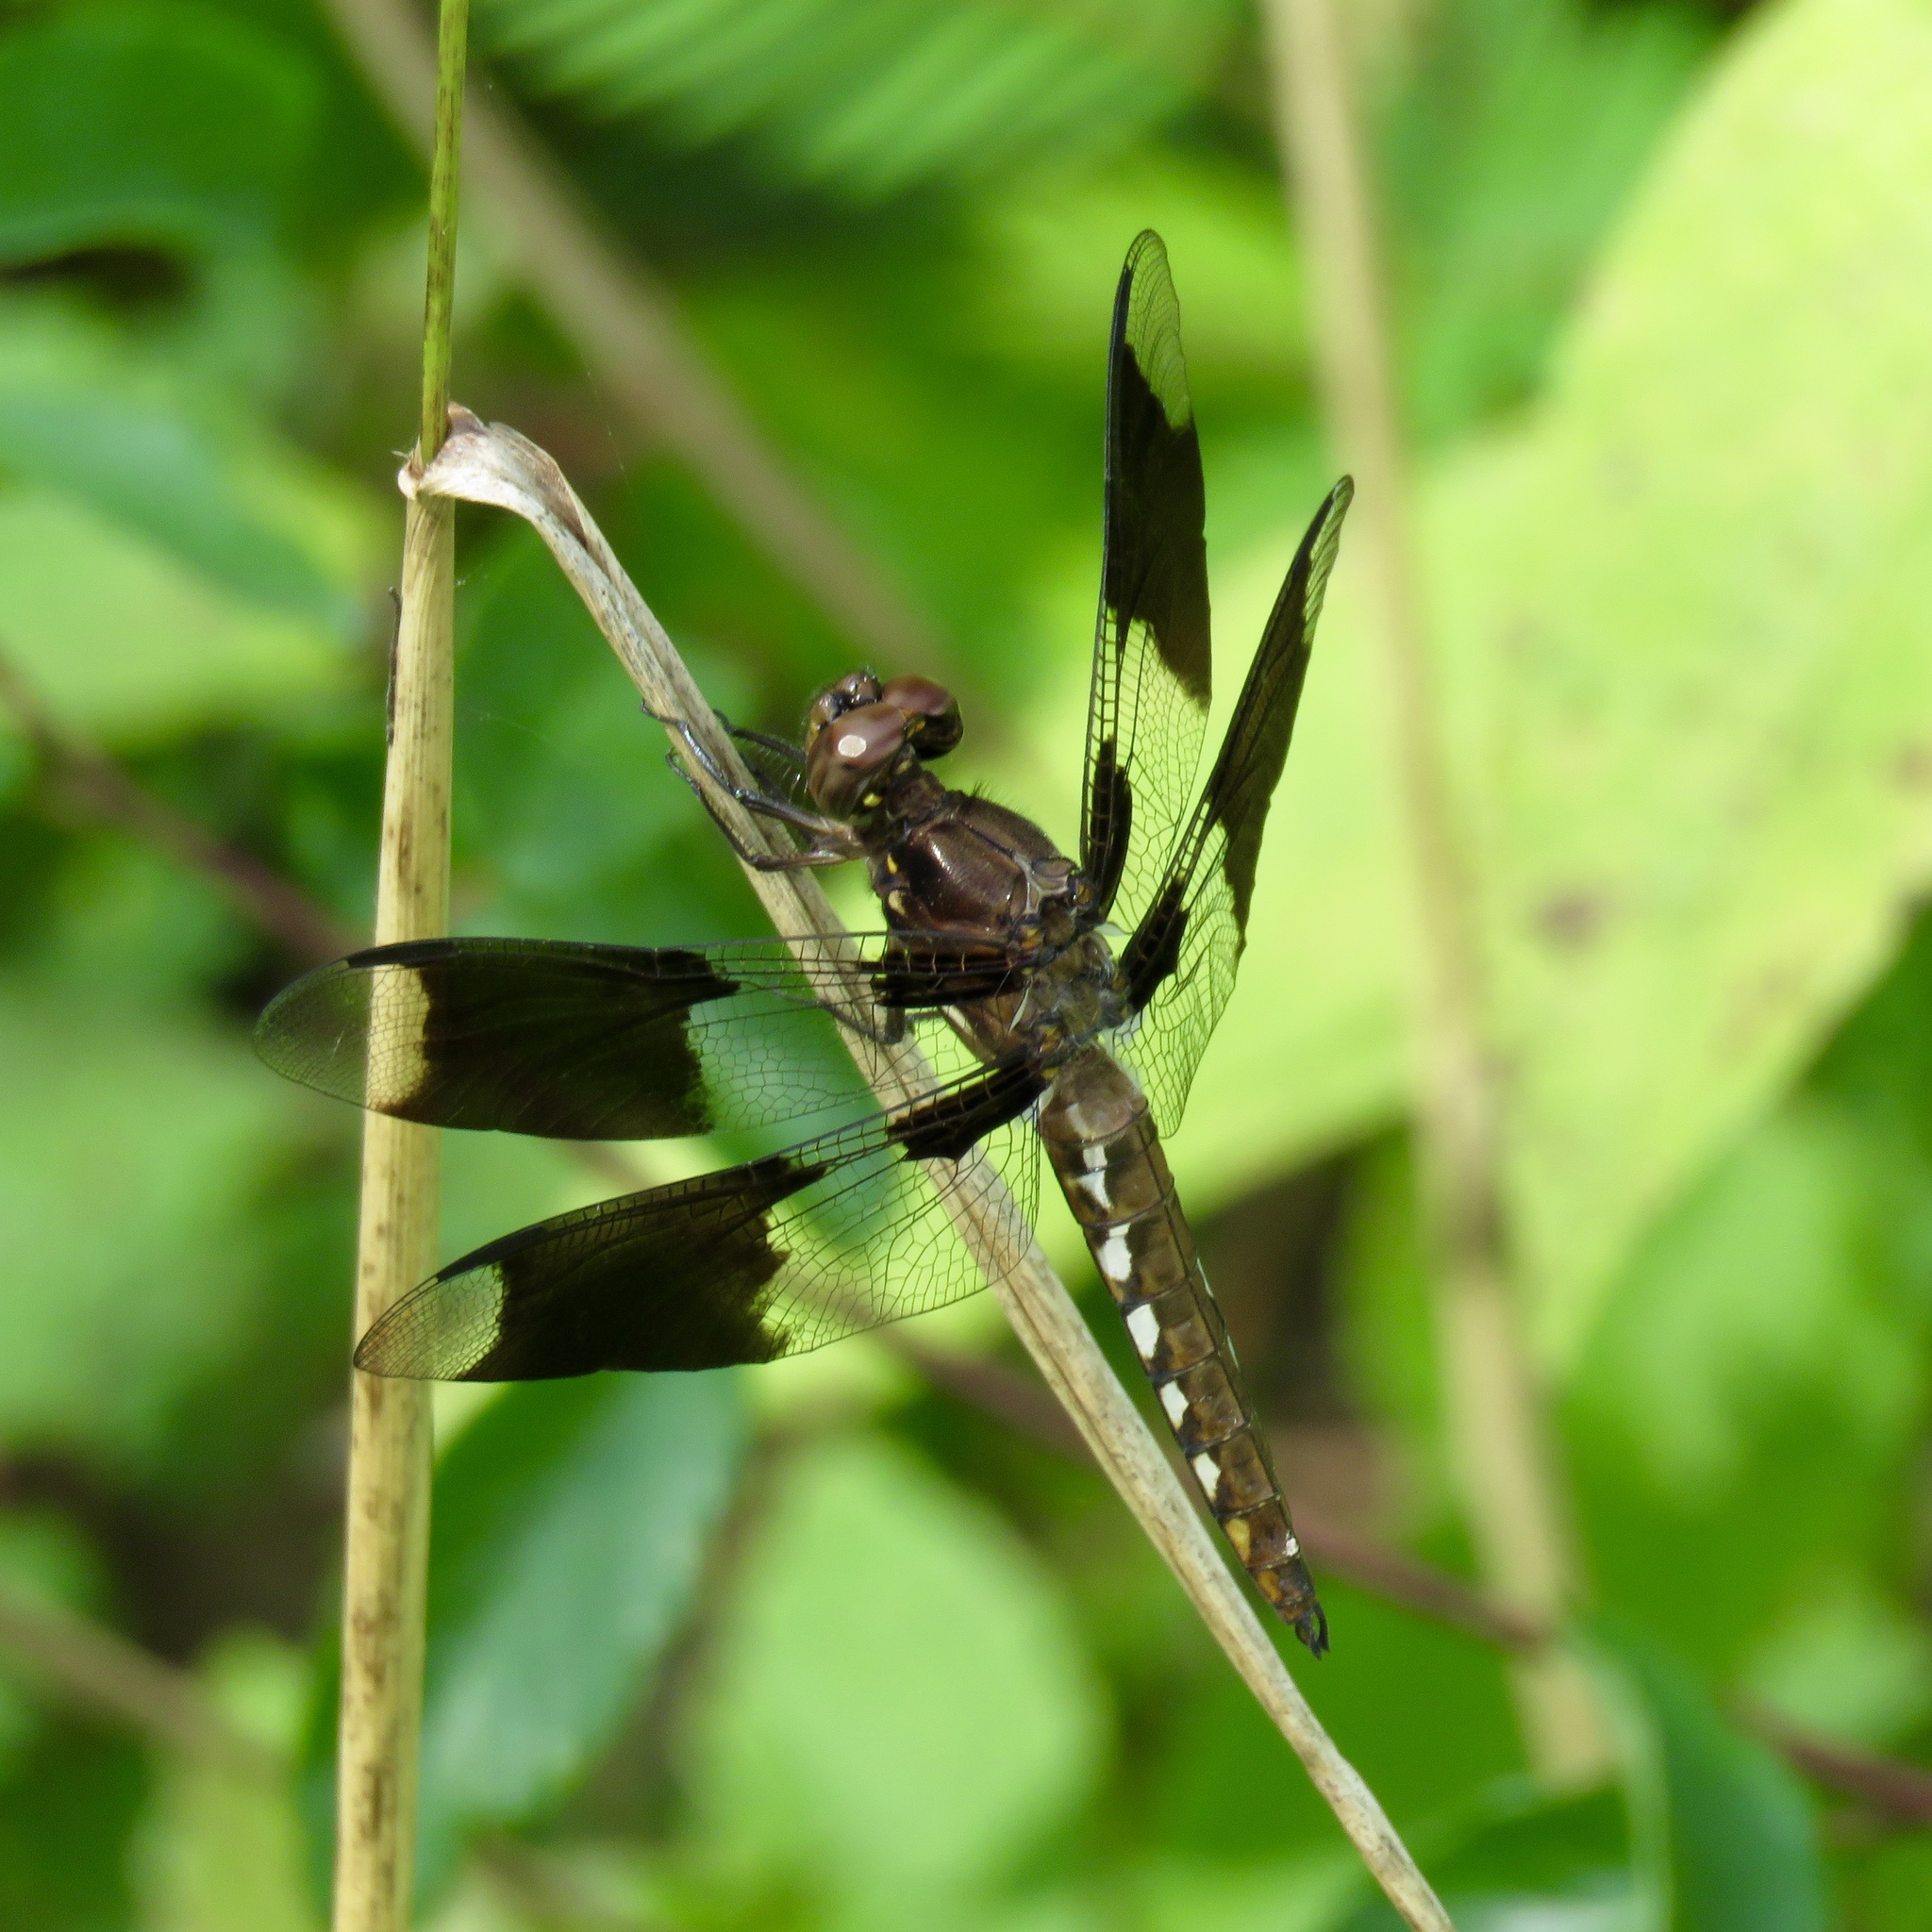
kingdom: Animalia
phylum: Arthropoda
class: Insecta
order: Odonata
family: Libellulidae
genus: Plathemis
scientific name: Plathemis lydia
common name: Common whitetail
